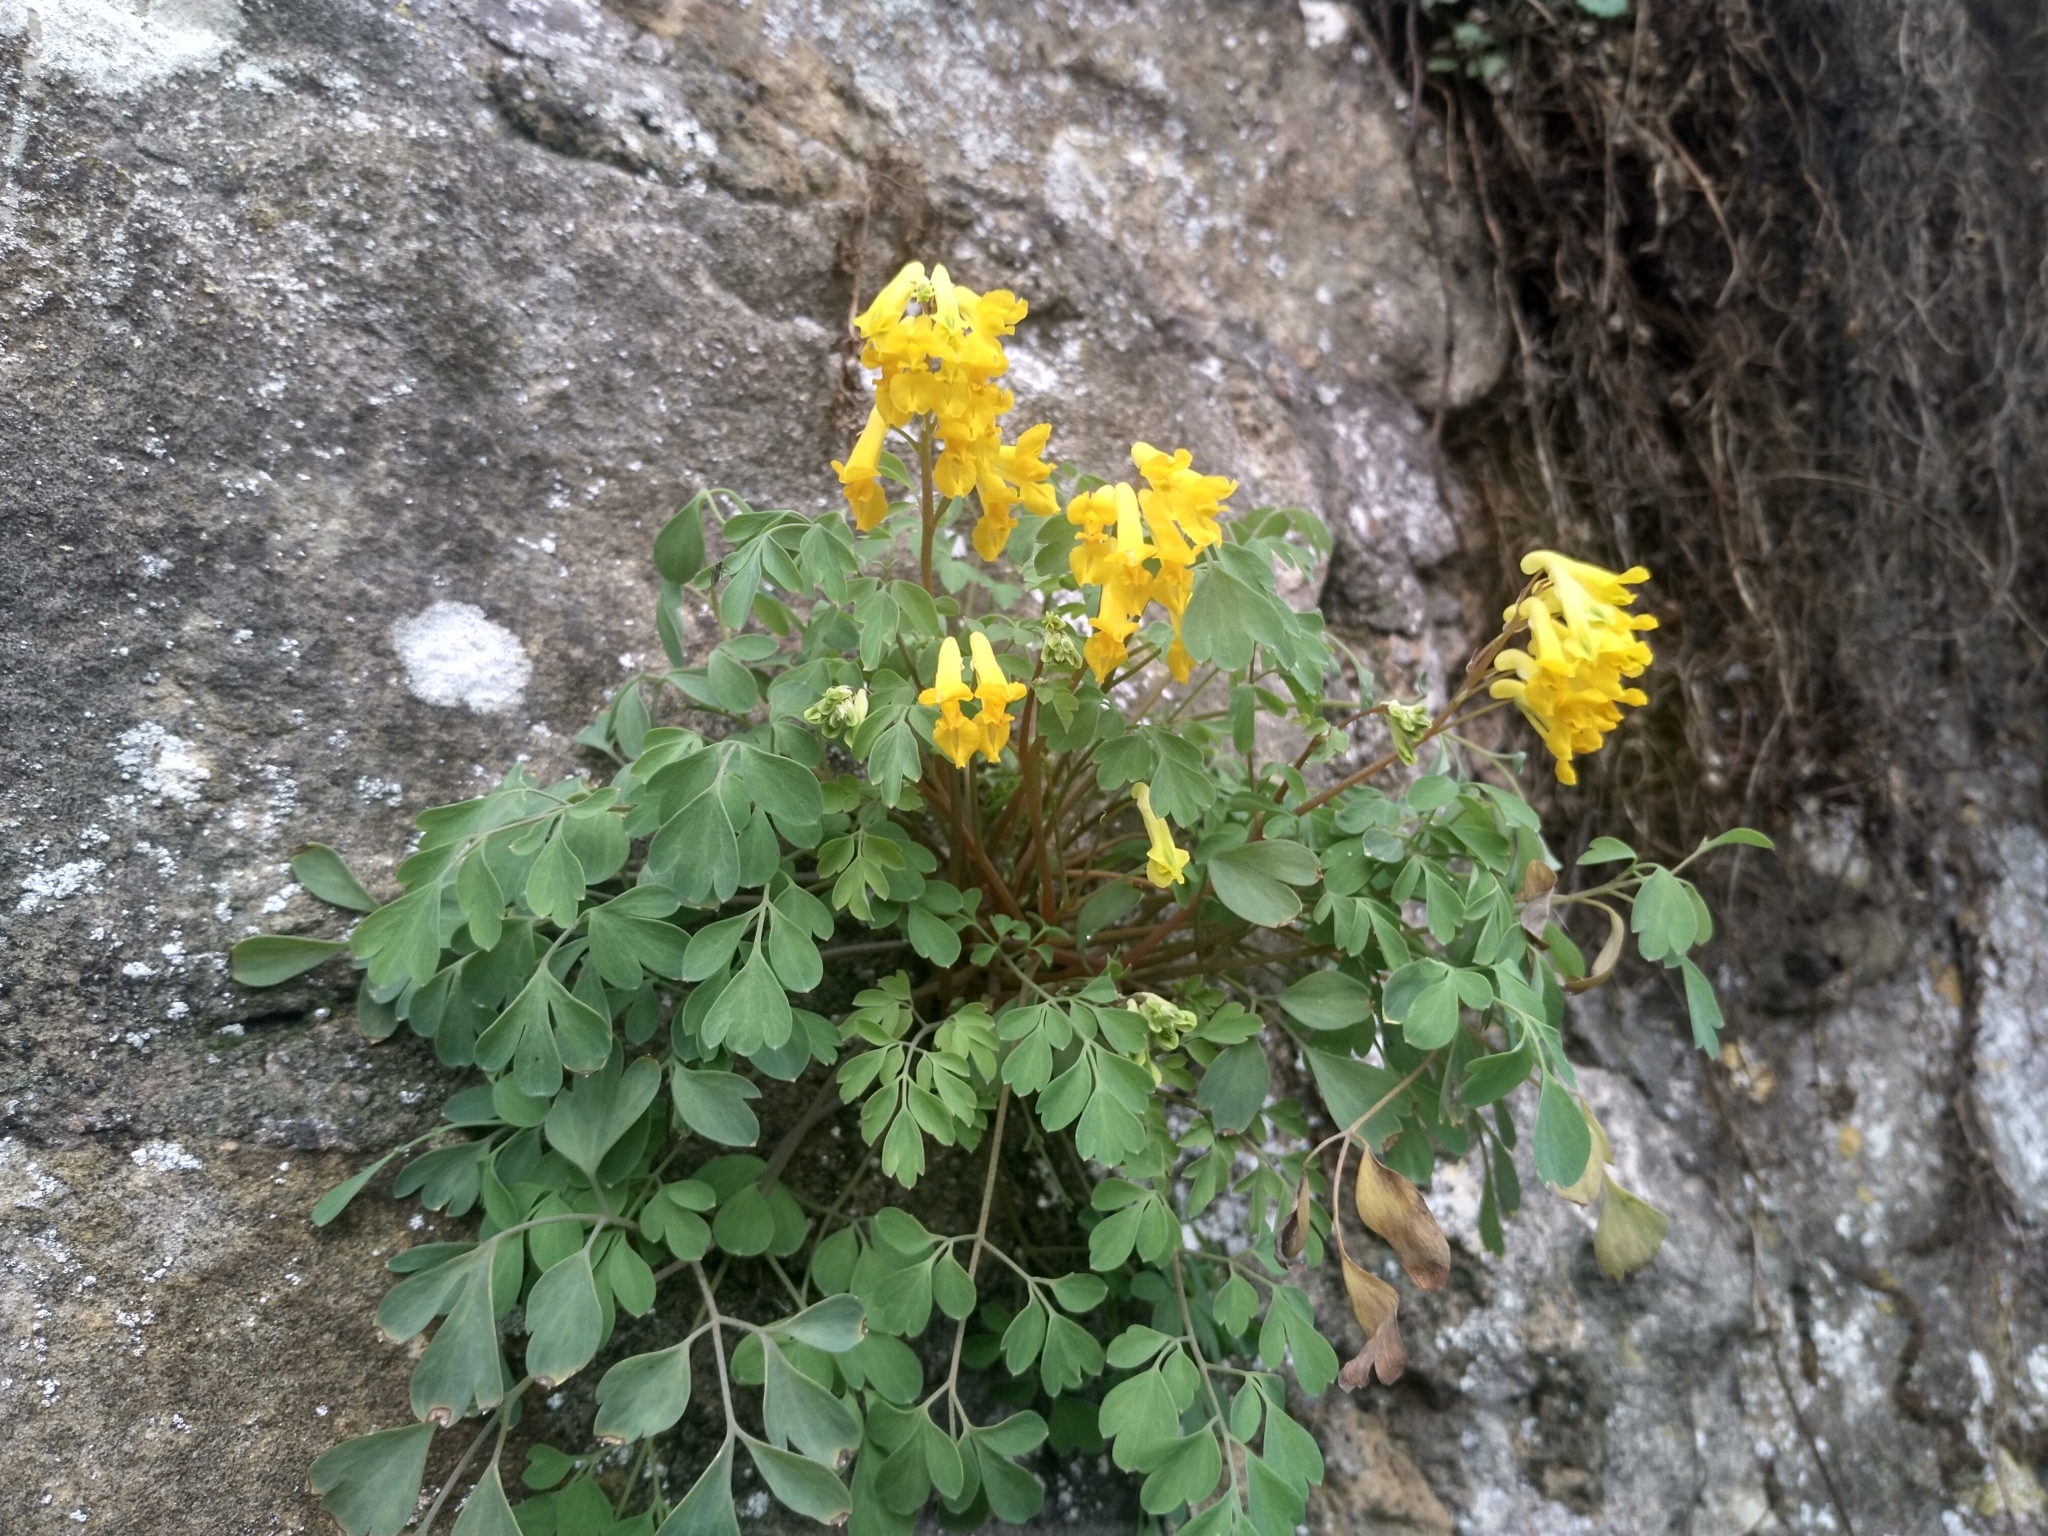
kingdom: Plantae
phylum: Tracheophyta
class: Magnoliopsida
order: Ranunculales
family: Papaveraceae
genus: Pseudofumaria
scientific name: Pseudofumaria lutea
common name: Yellow corydalis
